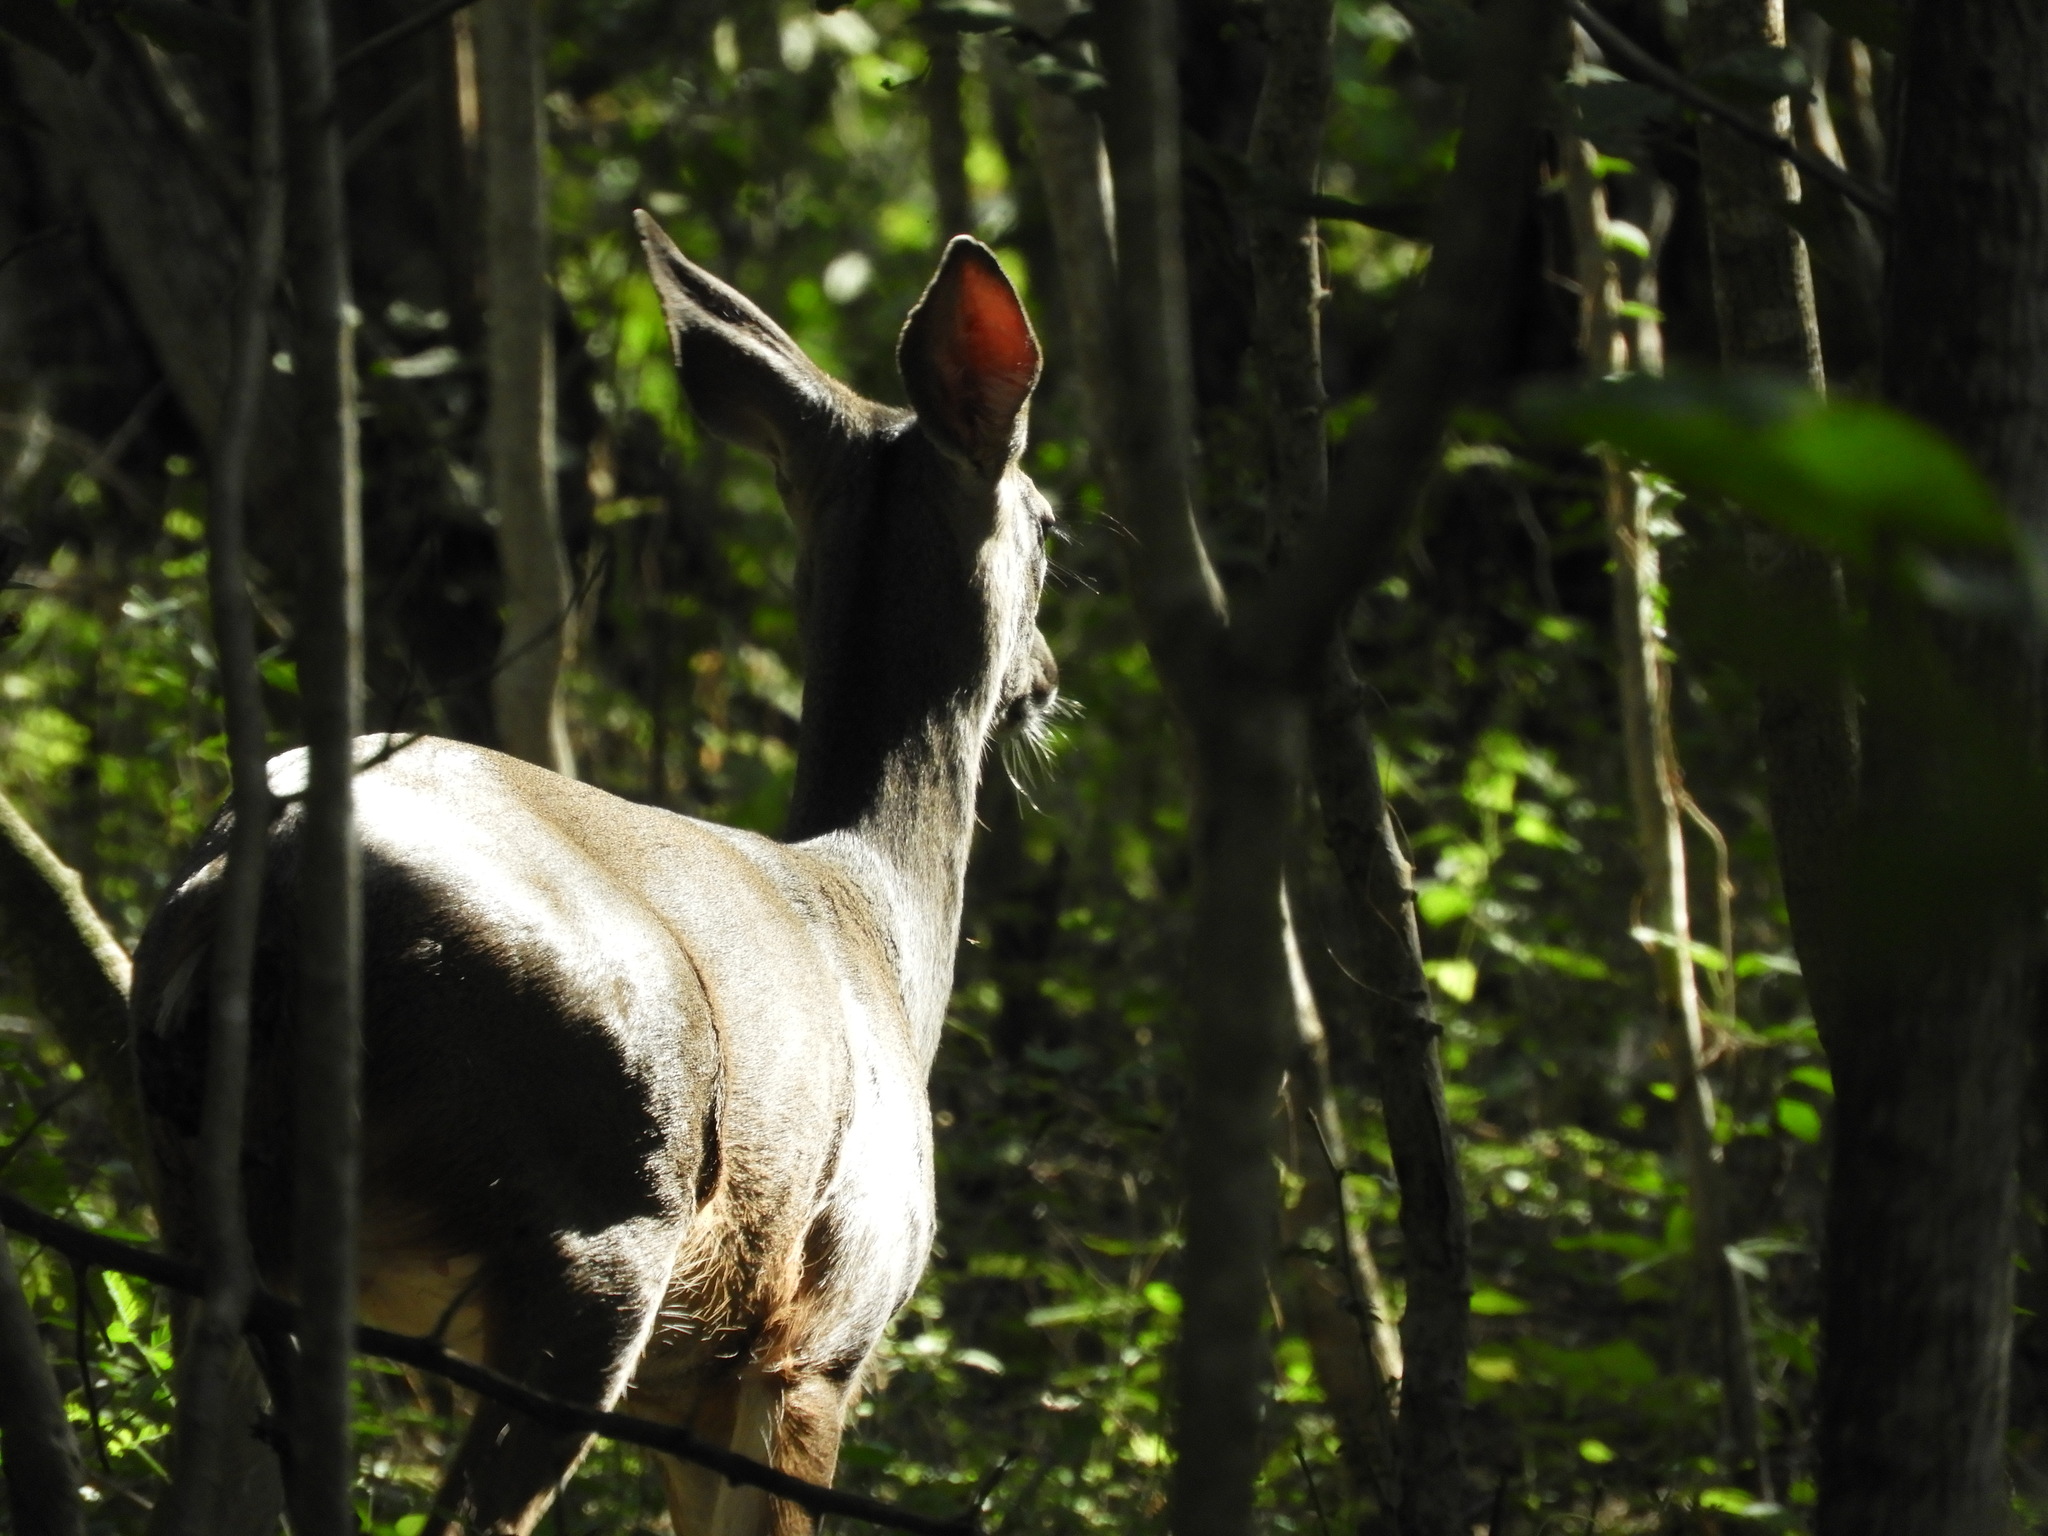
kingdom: Animalia
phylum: Chordata
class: Mammalia
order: Artiodactyla
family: Cervidae
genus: Odocoileus
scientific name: Odocoileus virginianus
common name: White-tailed deer
